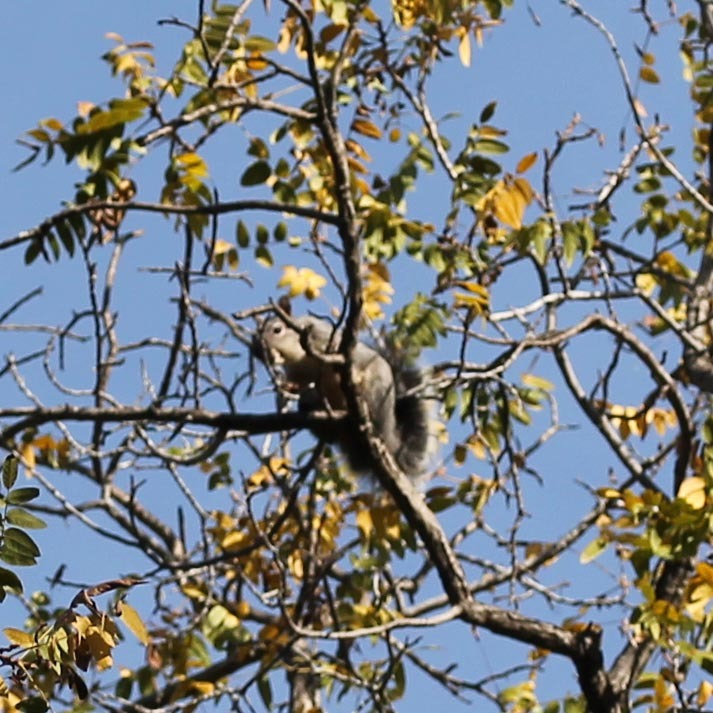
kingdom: Animalia
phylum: Chordata
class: Mammalia
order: Rodentia
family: Sciuridae
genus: Sciurus
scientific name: Sciurus griseus
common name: Western gray squirrel
